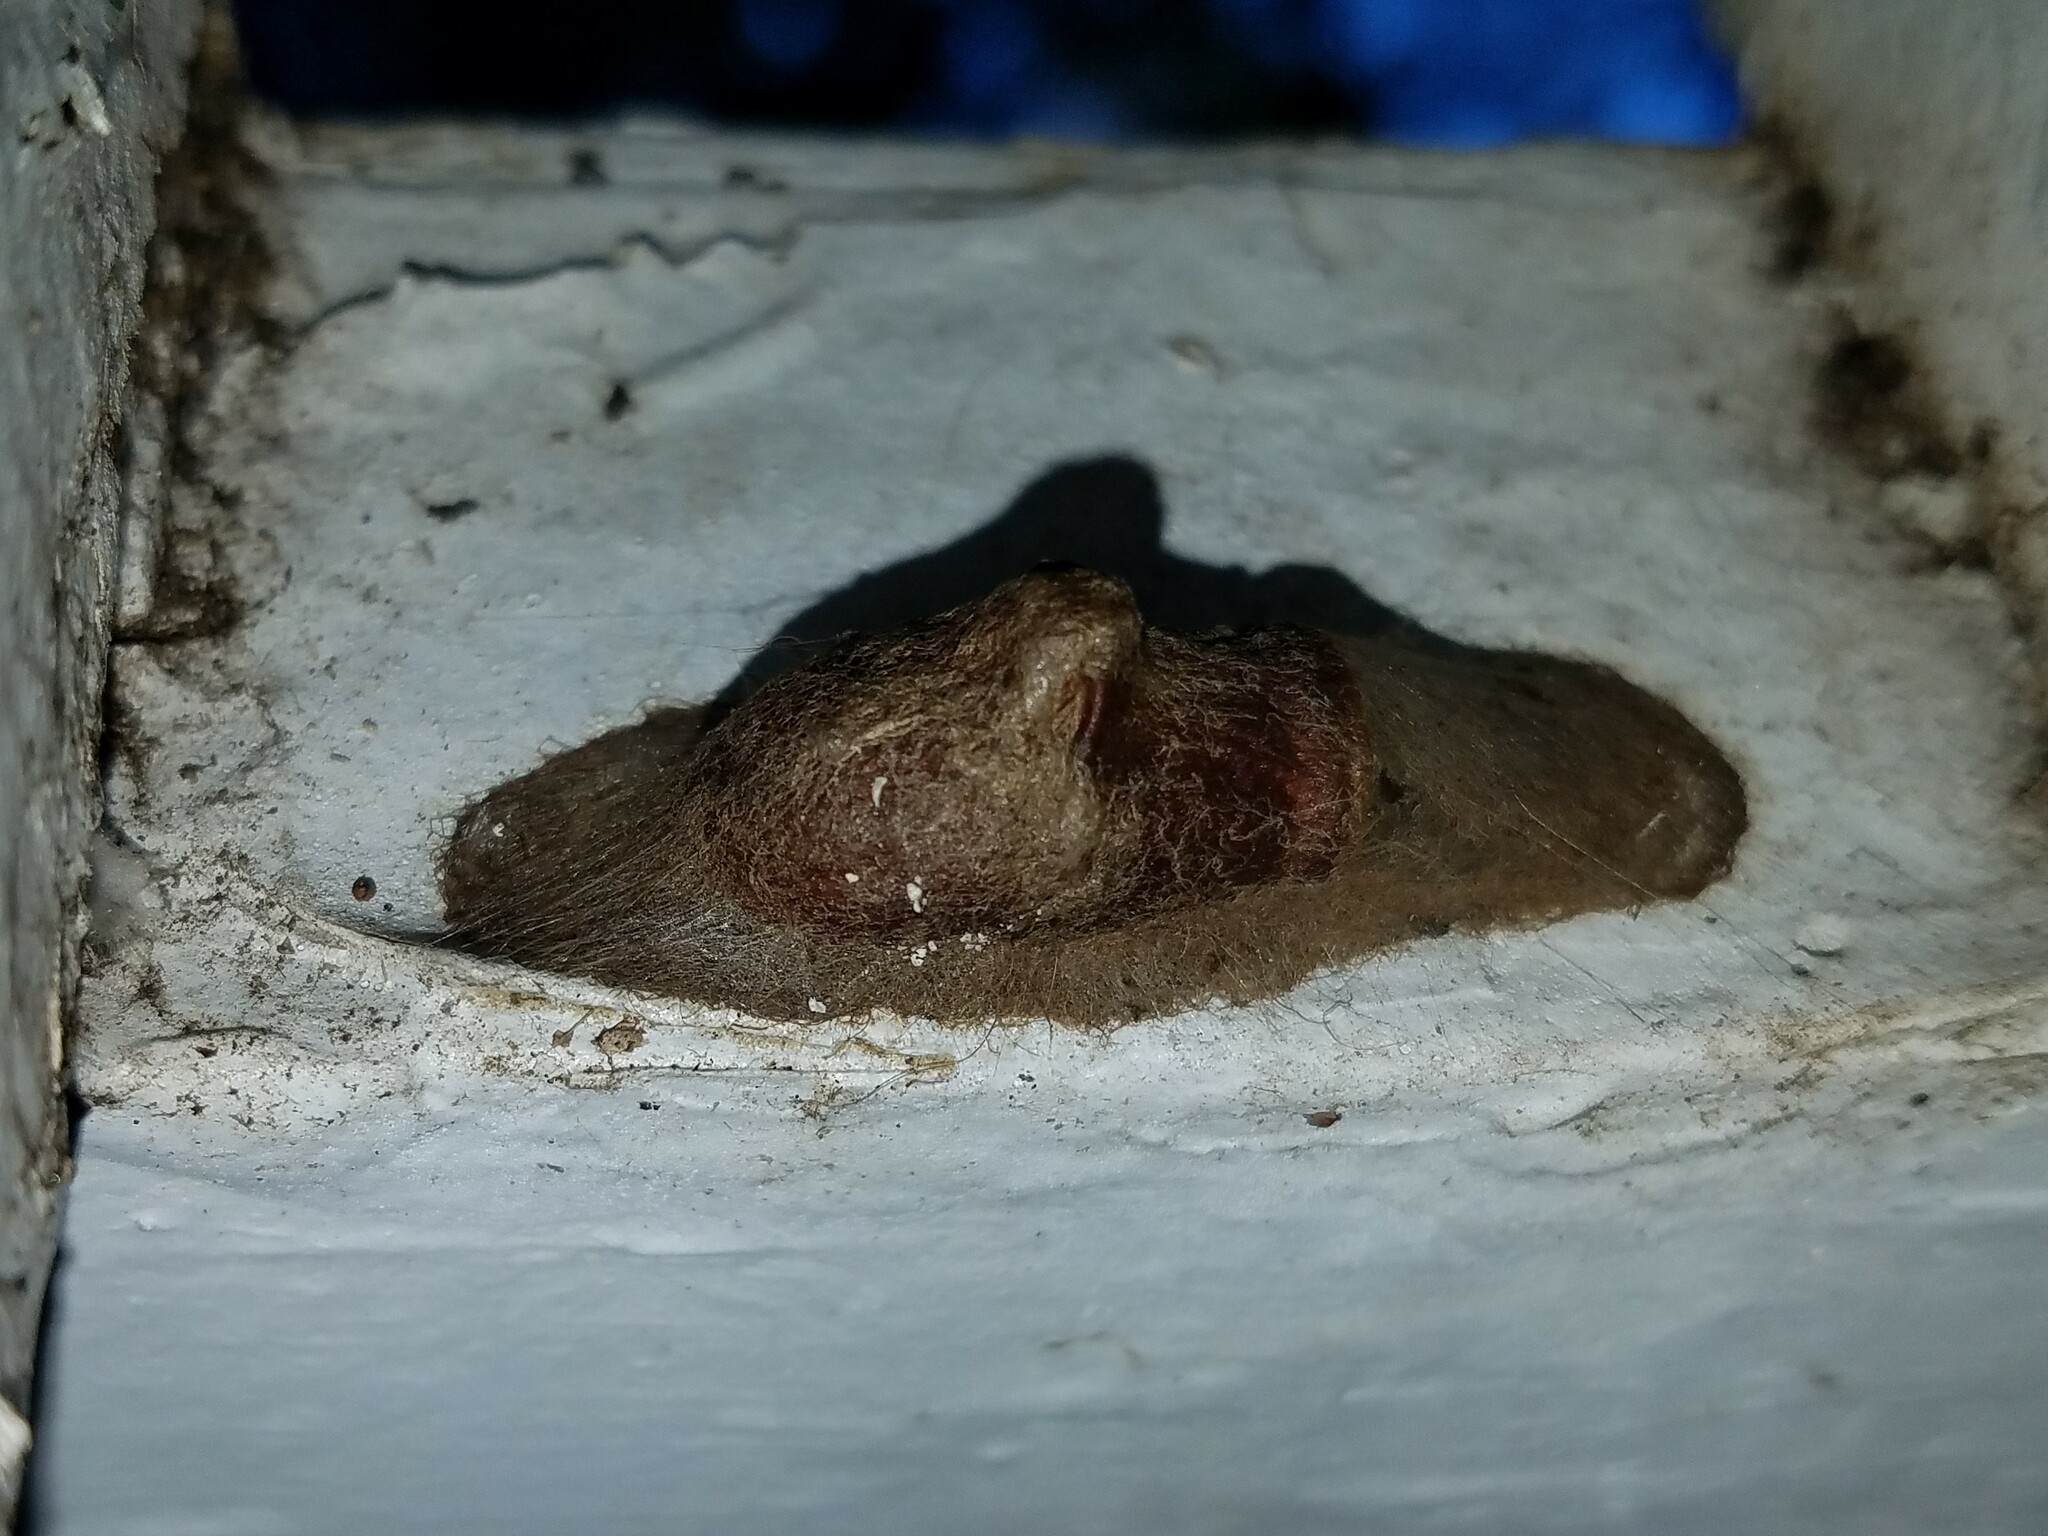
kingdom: Animalia
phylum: Arthropoda
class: Insecta
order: Lepidoptera
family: Megalopygidae
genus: Megalopyge
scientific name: Megalopyge
